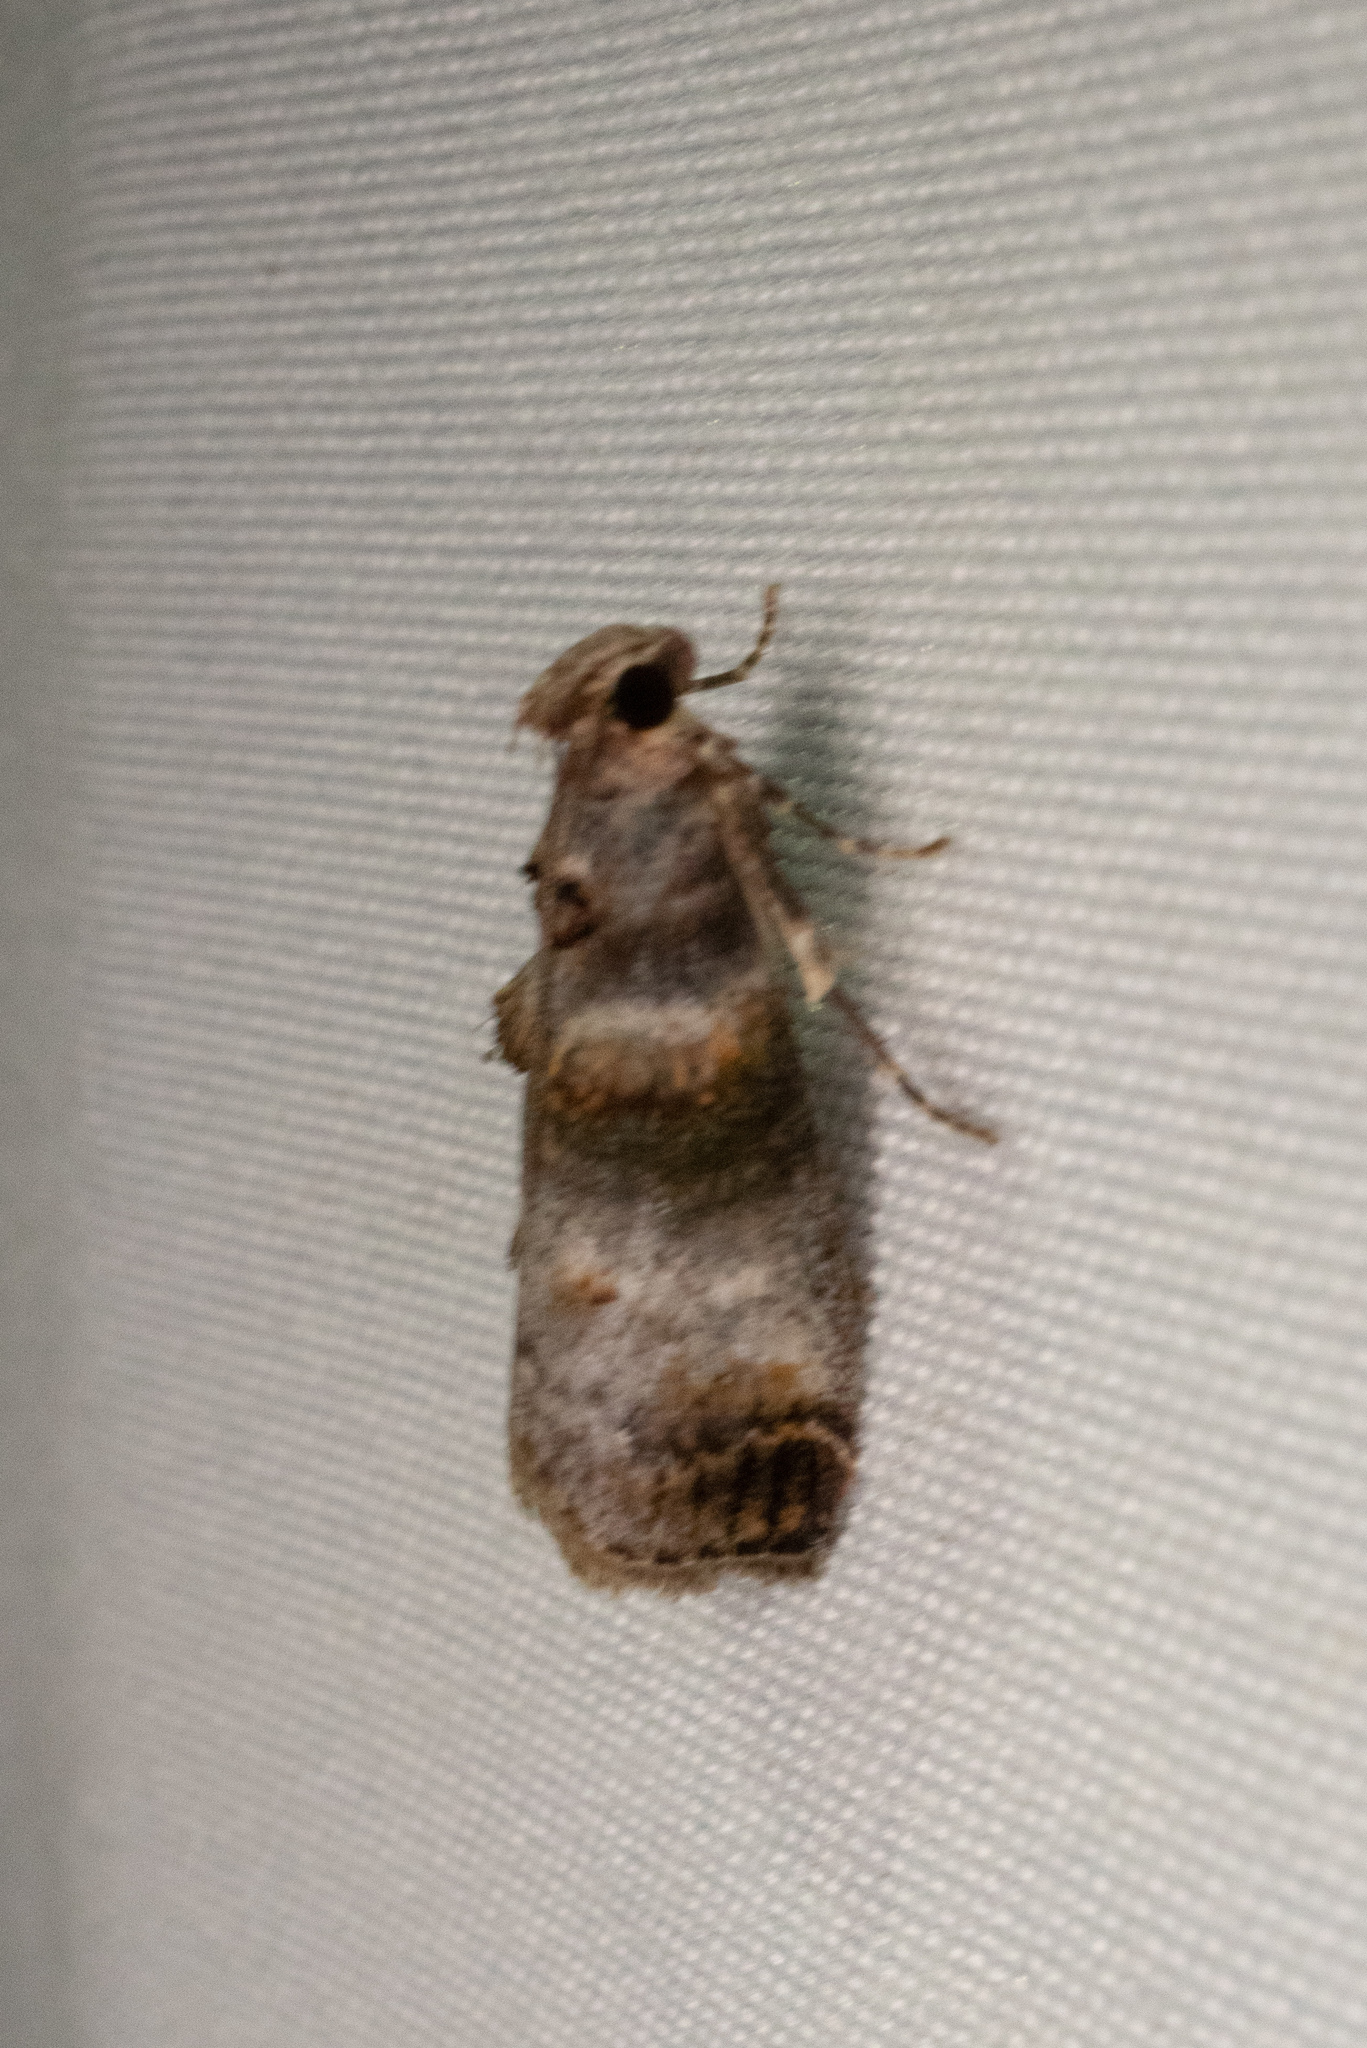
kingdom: Animalia
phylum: Arthropoda
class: Insecta
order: Lepidoptera
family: Pyralidae
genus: Oneida
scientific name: Oneida lunulalis
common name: Orange-tufted oneida moth
